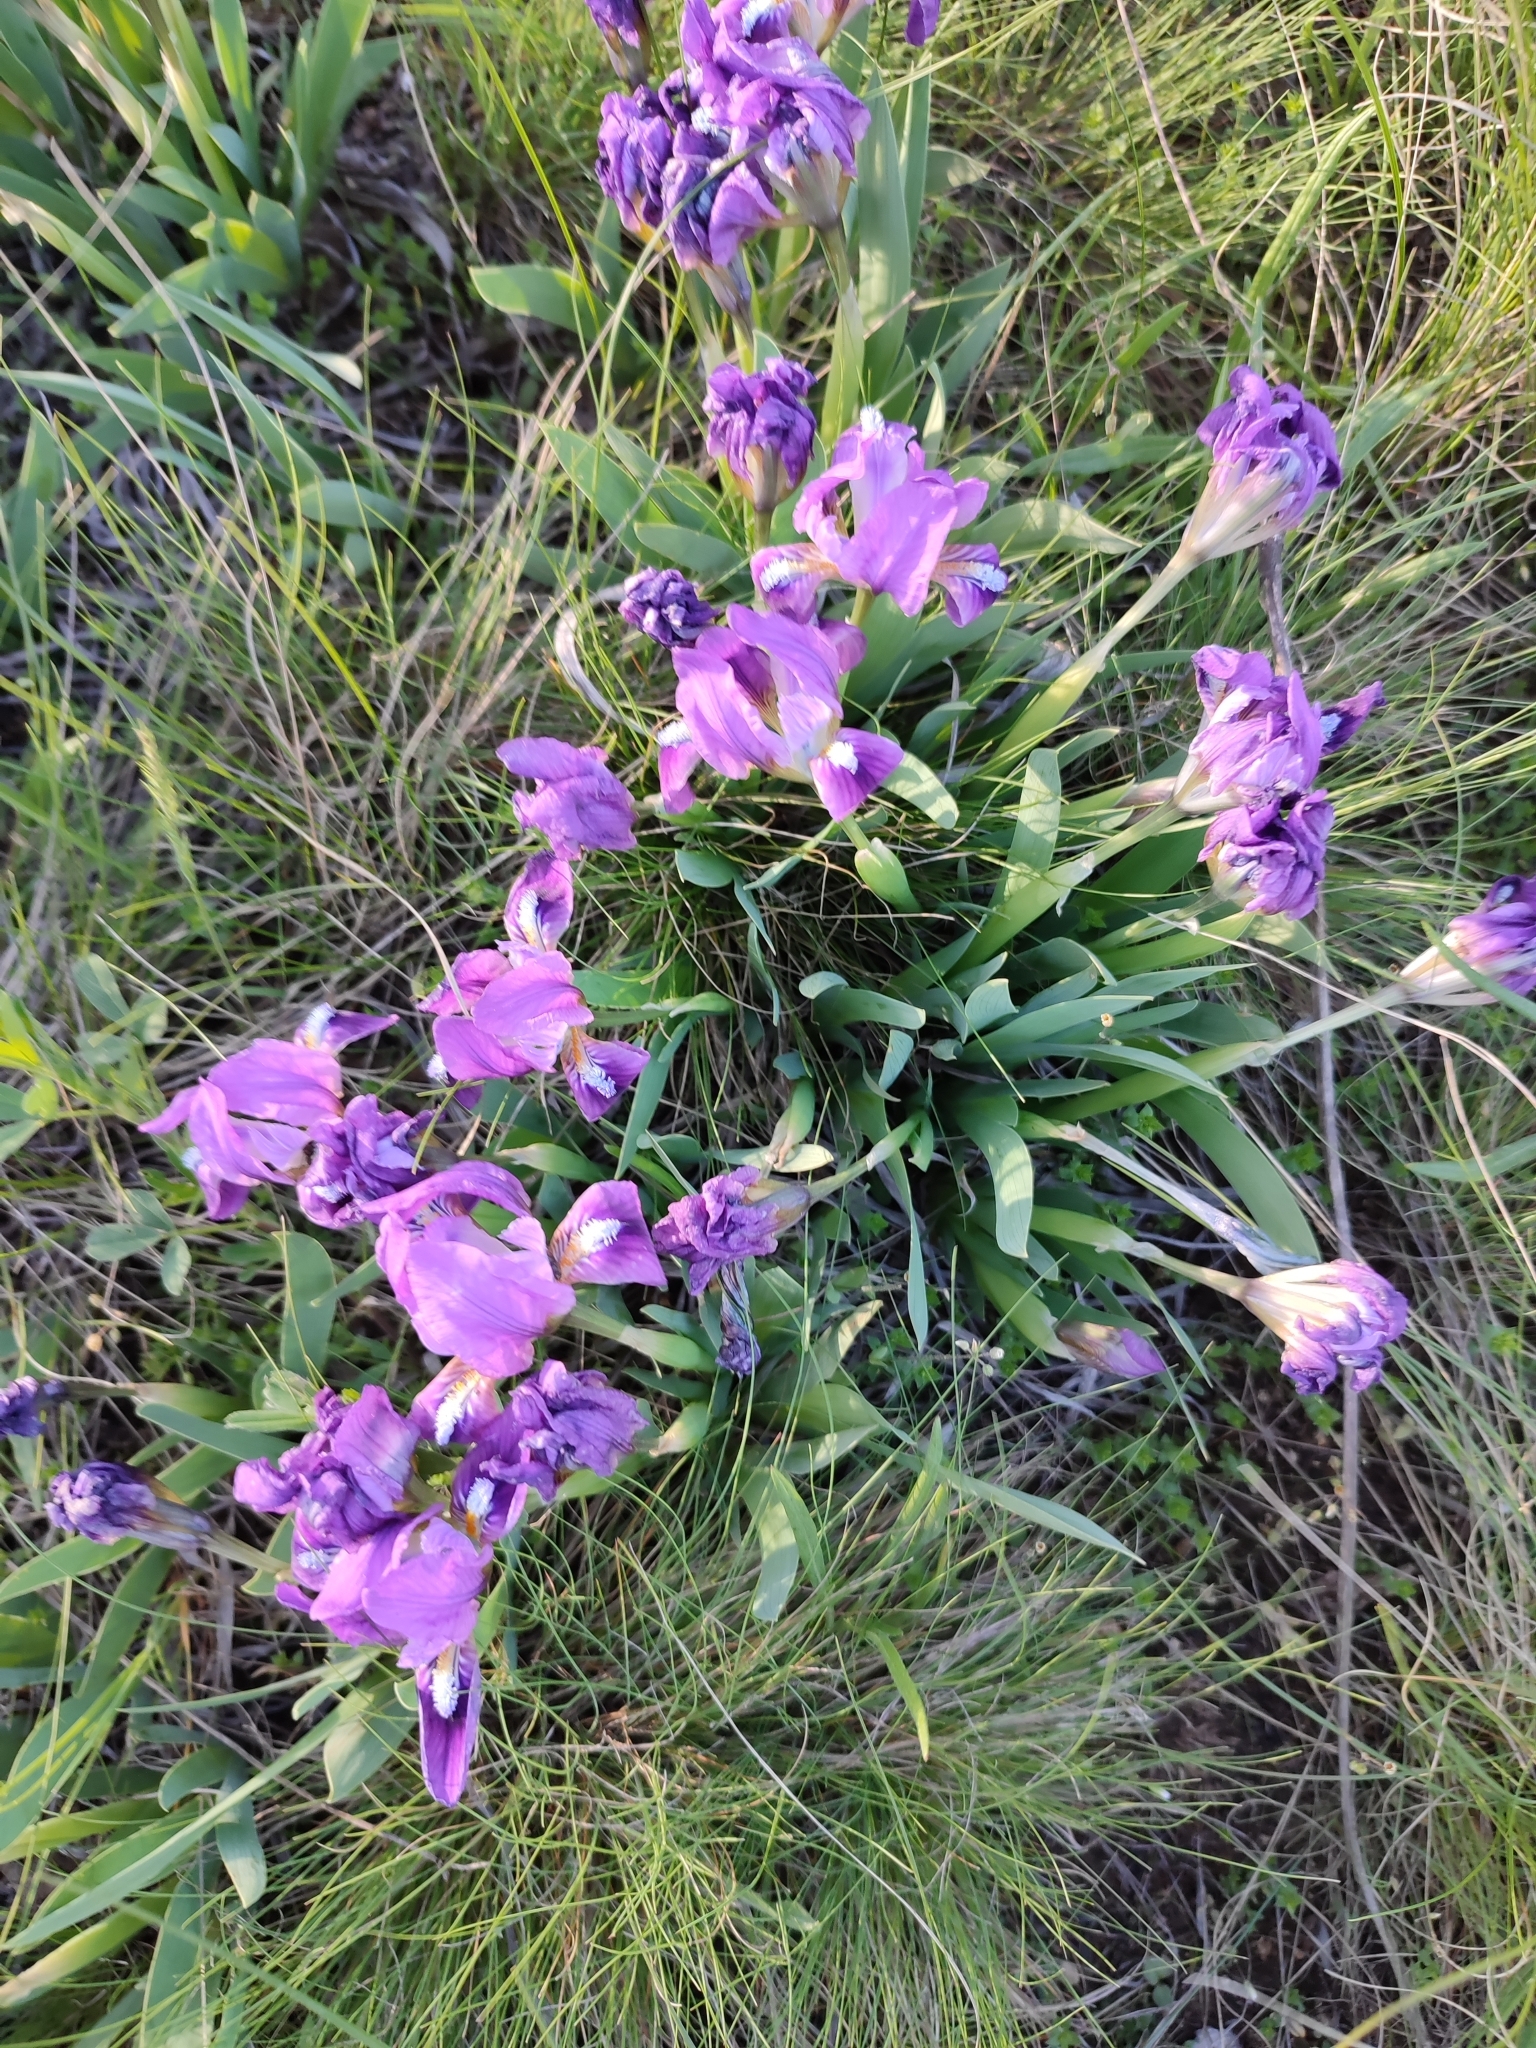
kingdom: Plantae
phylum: Tracheophyta
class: Liliopsida
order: Asparagales
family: Iridaceae
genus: Iris
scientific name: Iris pumila
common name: Dwarf iris
